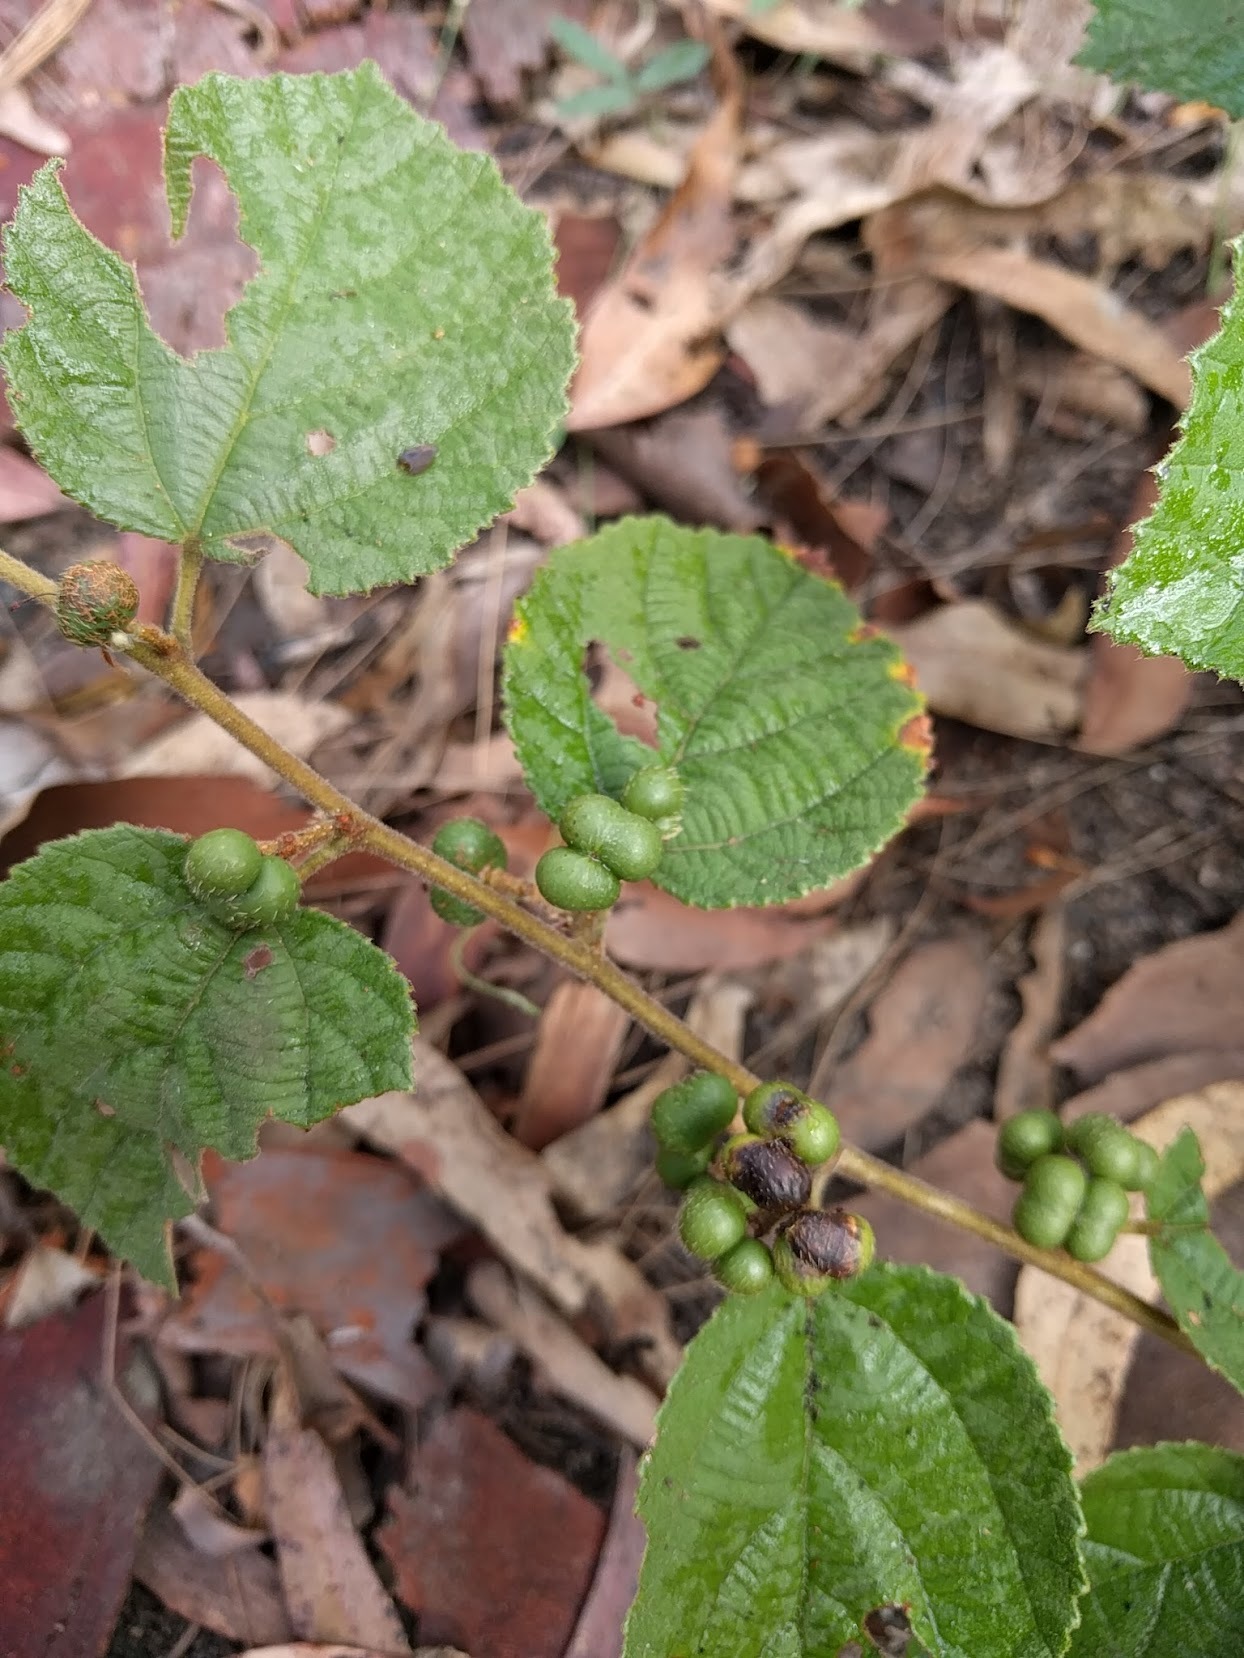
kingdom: Plantae
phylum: Tracheophyta
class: Magnoliopsida
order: Malvales
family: Malvaceae
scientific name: Malvaceae
